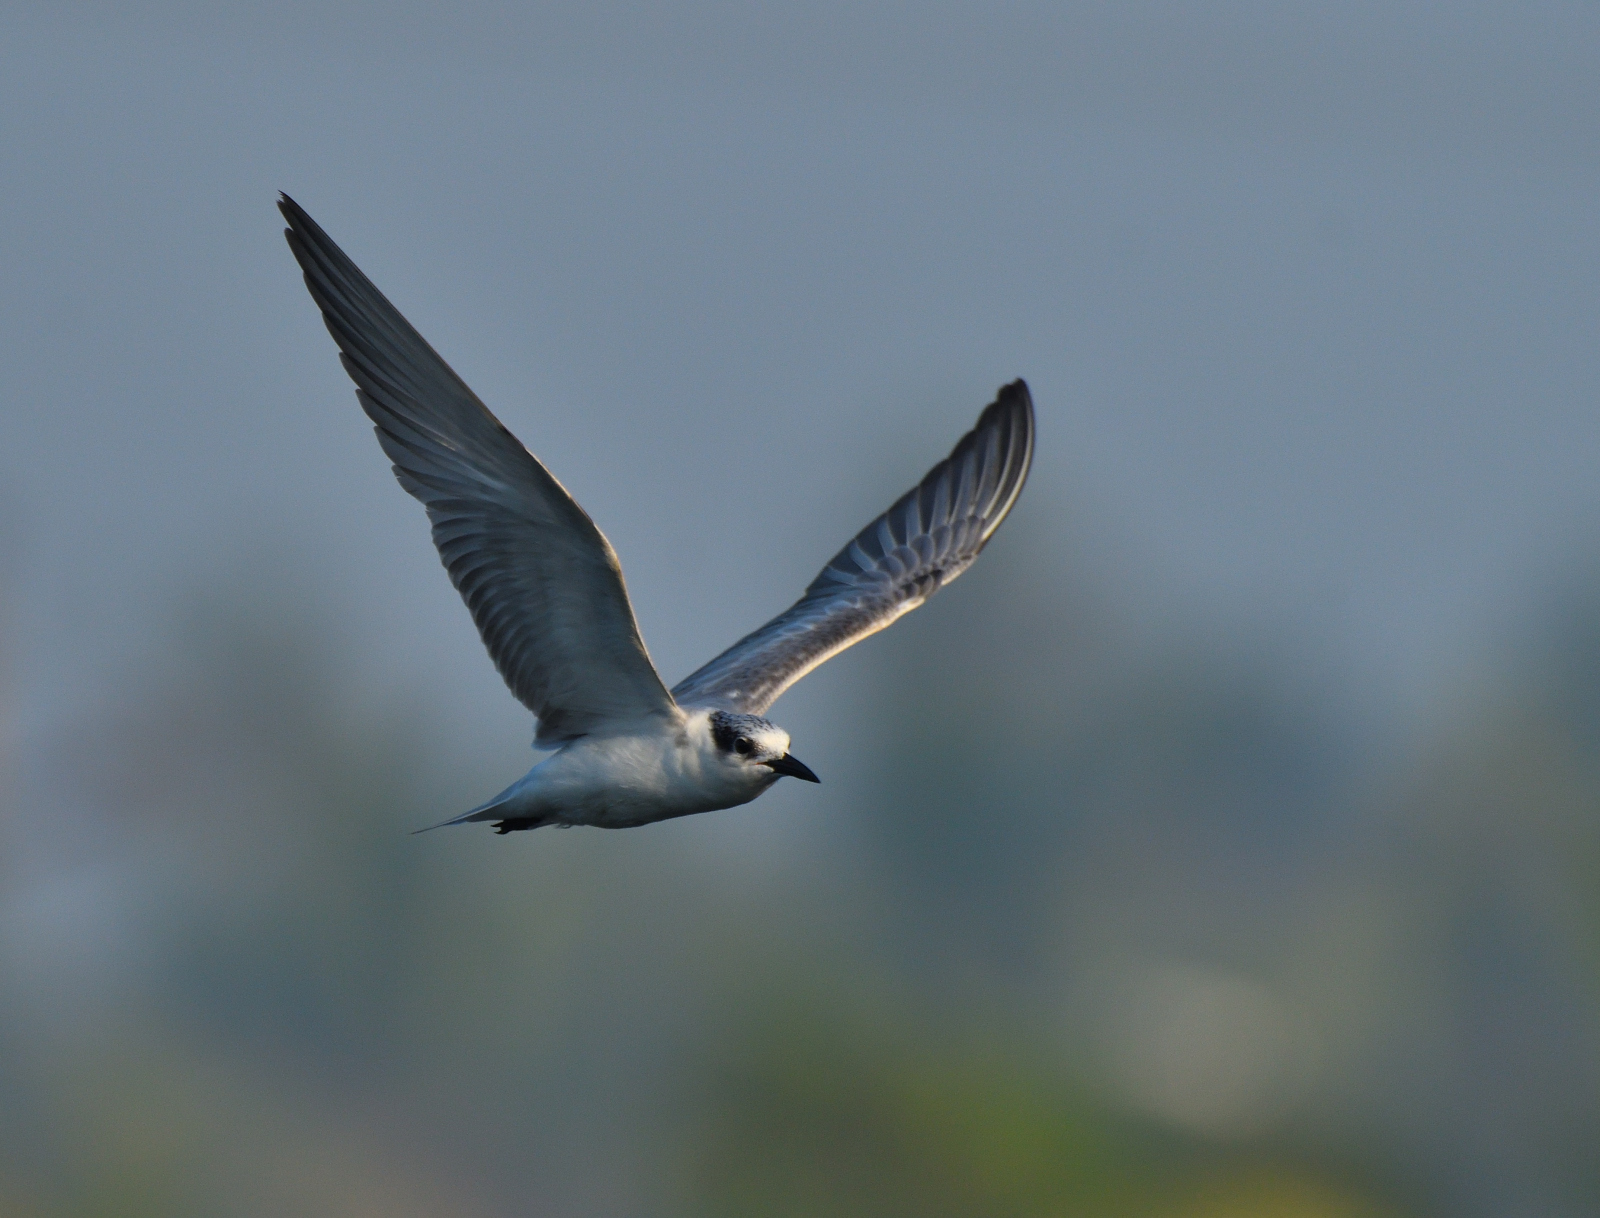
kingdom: Animalia
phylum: Chordata
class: Aves
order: Charadriiformes
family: Laridae
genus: Chlidonias
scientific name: Chlidonias hybrida
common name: Whiskered tern
